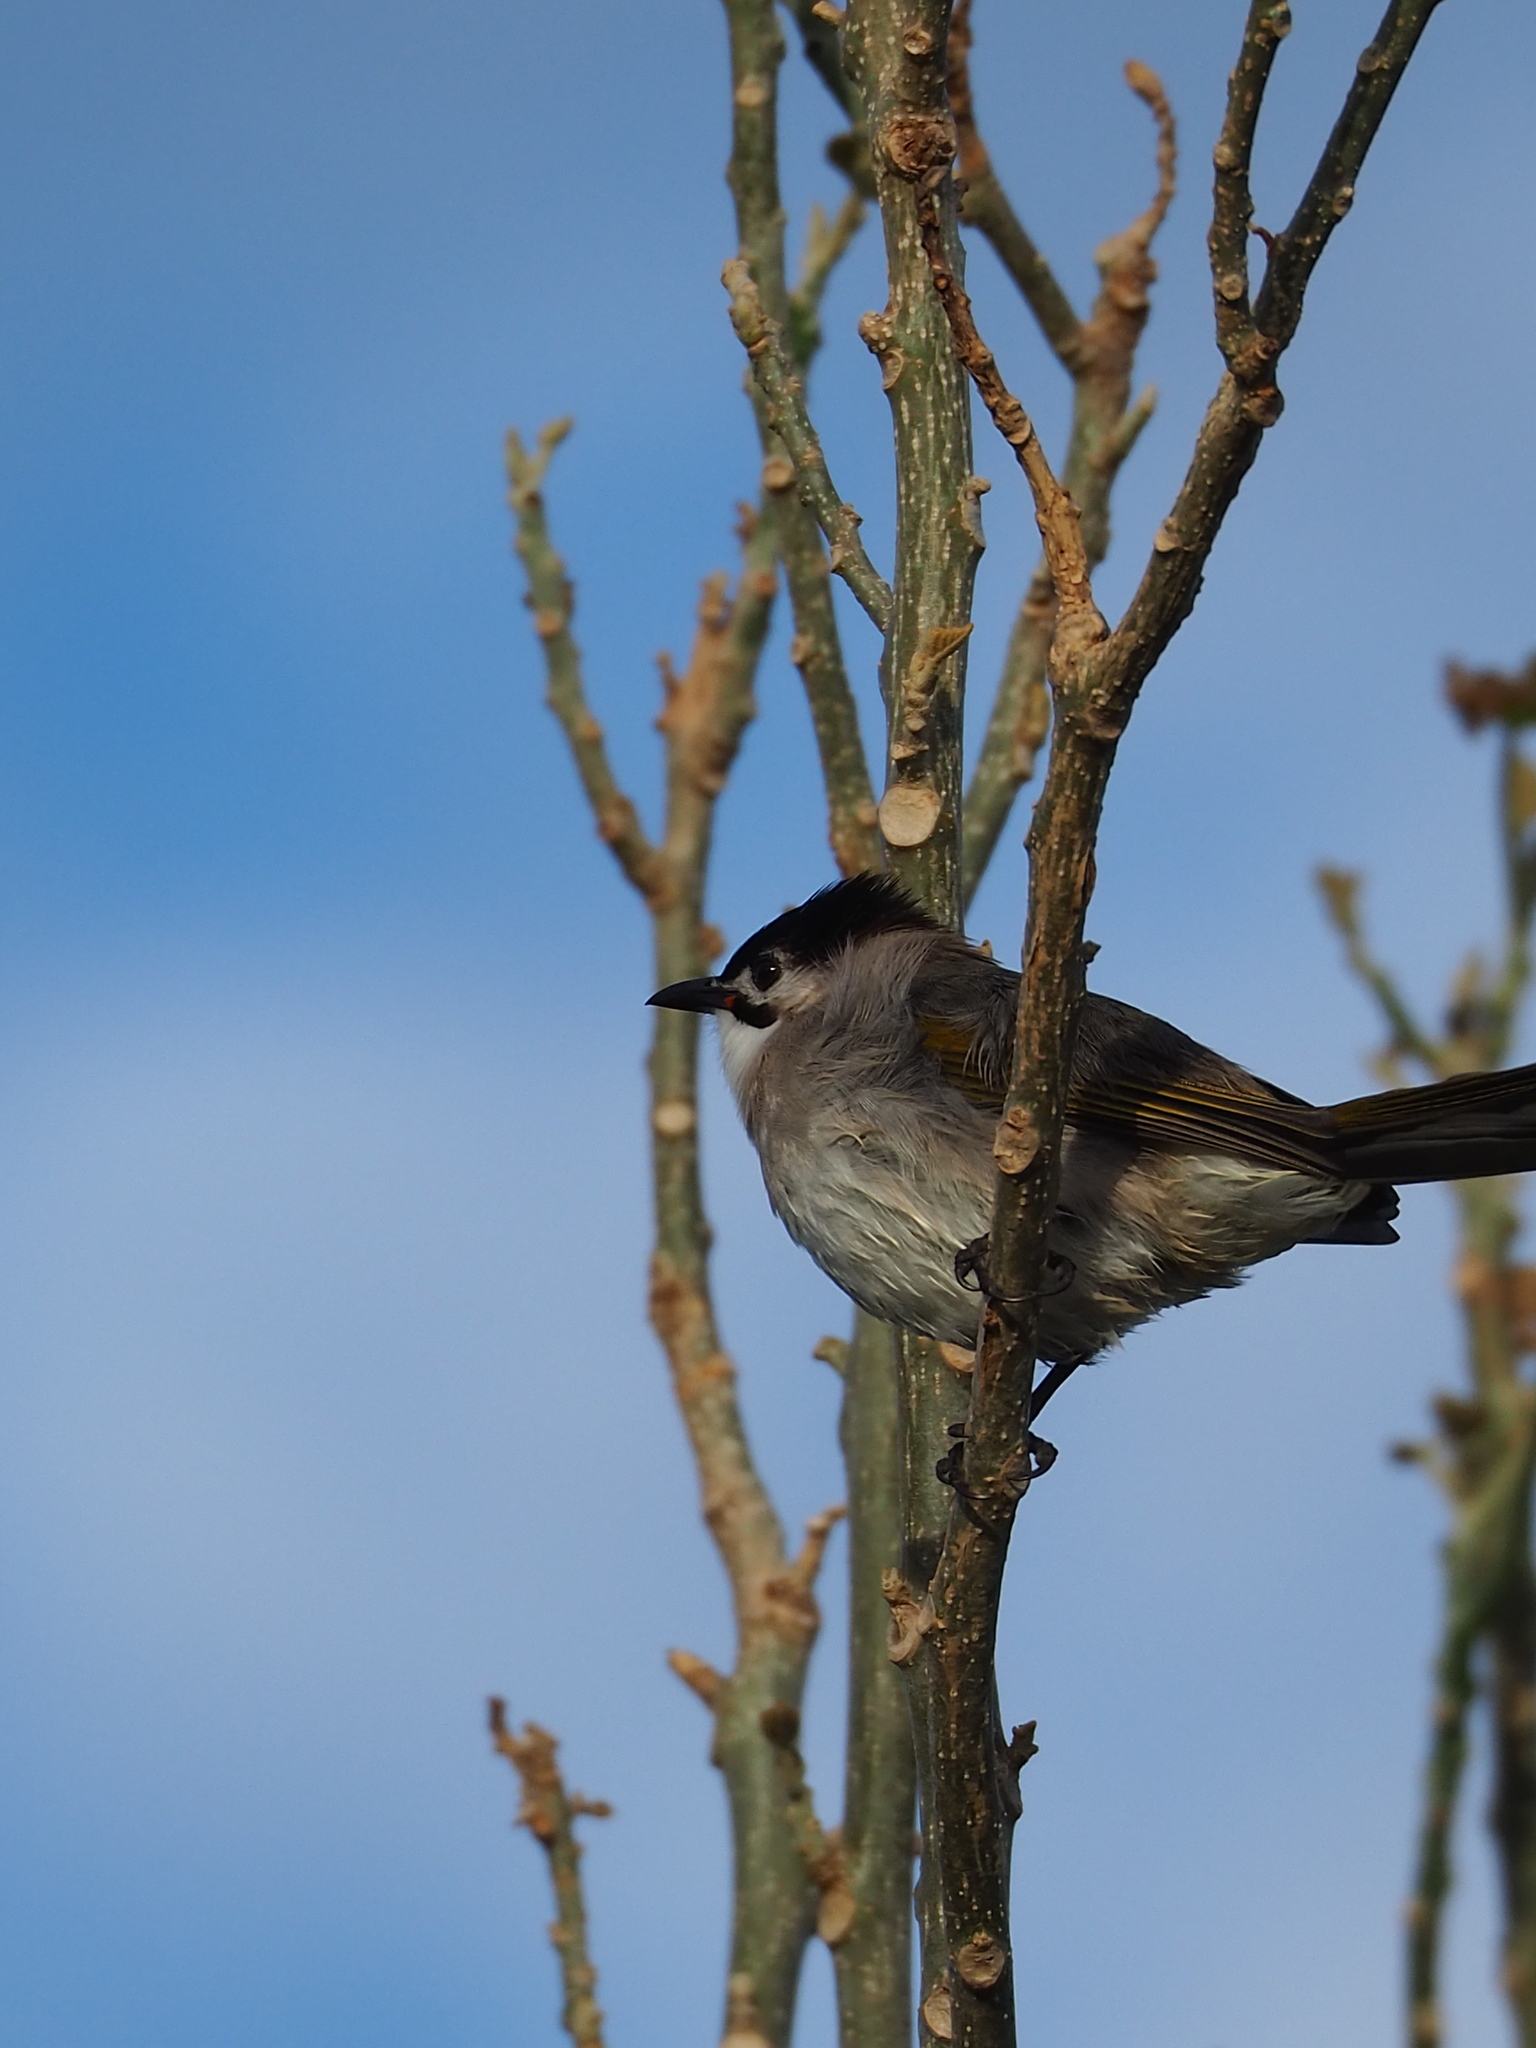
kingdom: Animalia
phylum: Chordata
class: Aves
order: Passeriformes
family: Pycnonotidae
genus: Pycnonotus
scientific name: Pycnonotus taivanus
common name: Styan's bulbul
